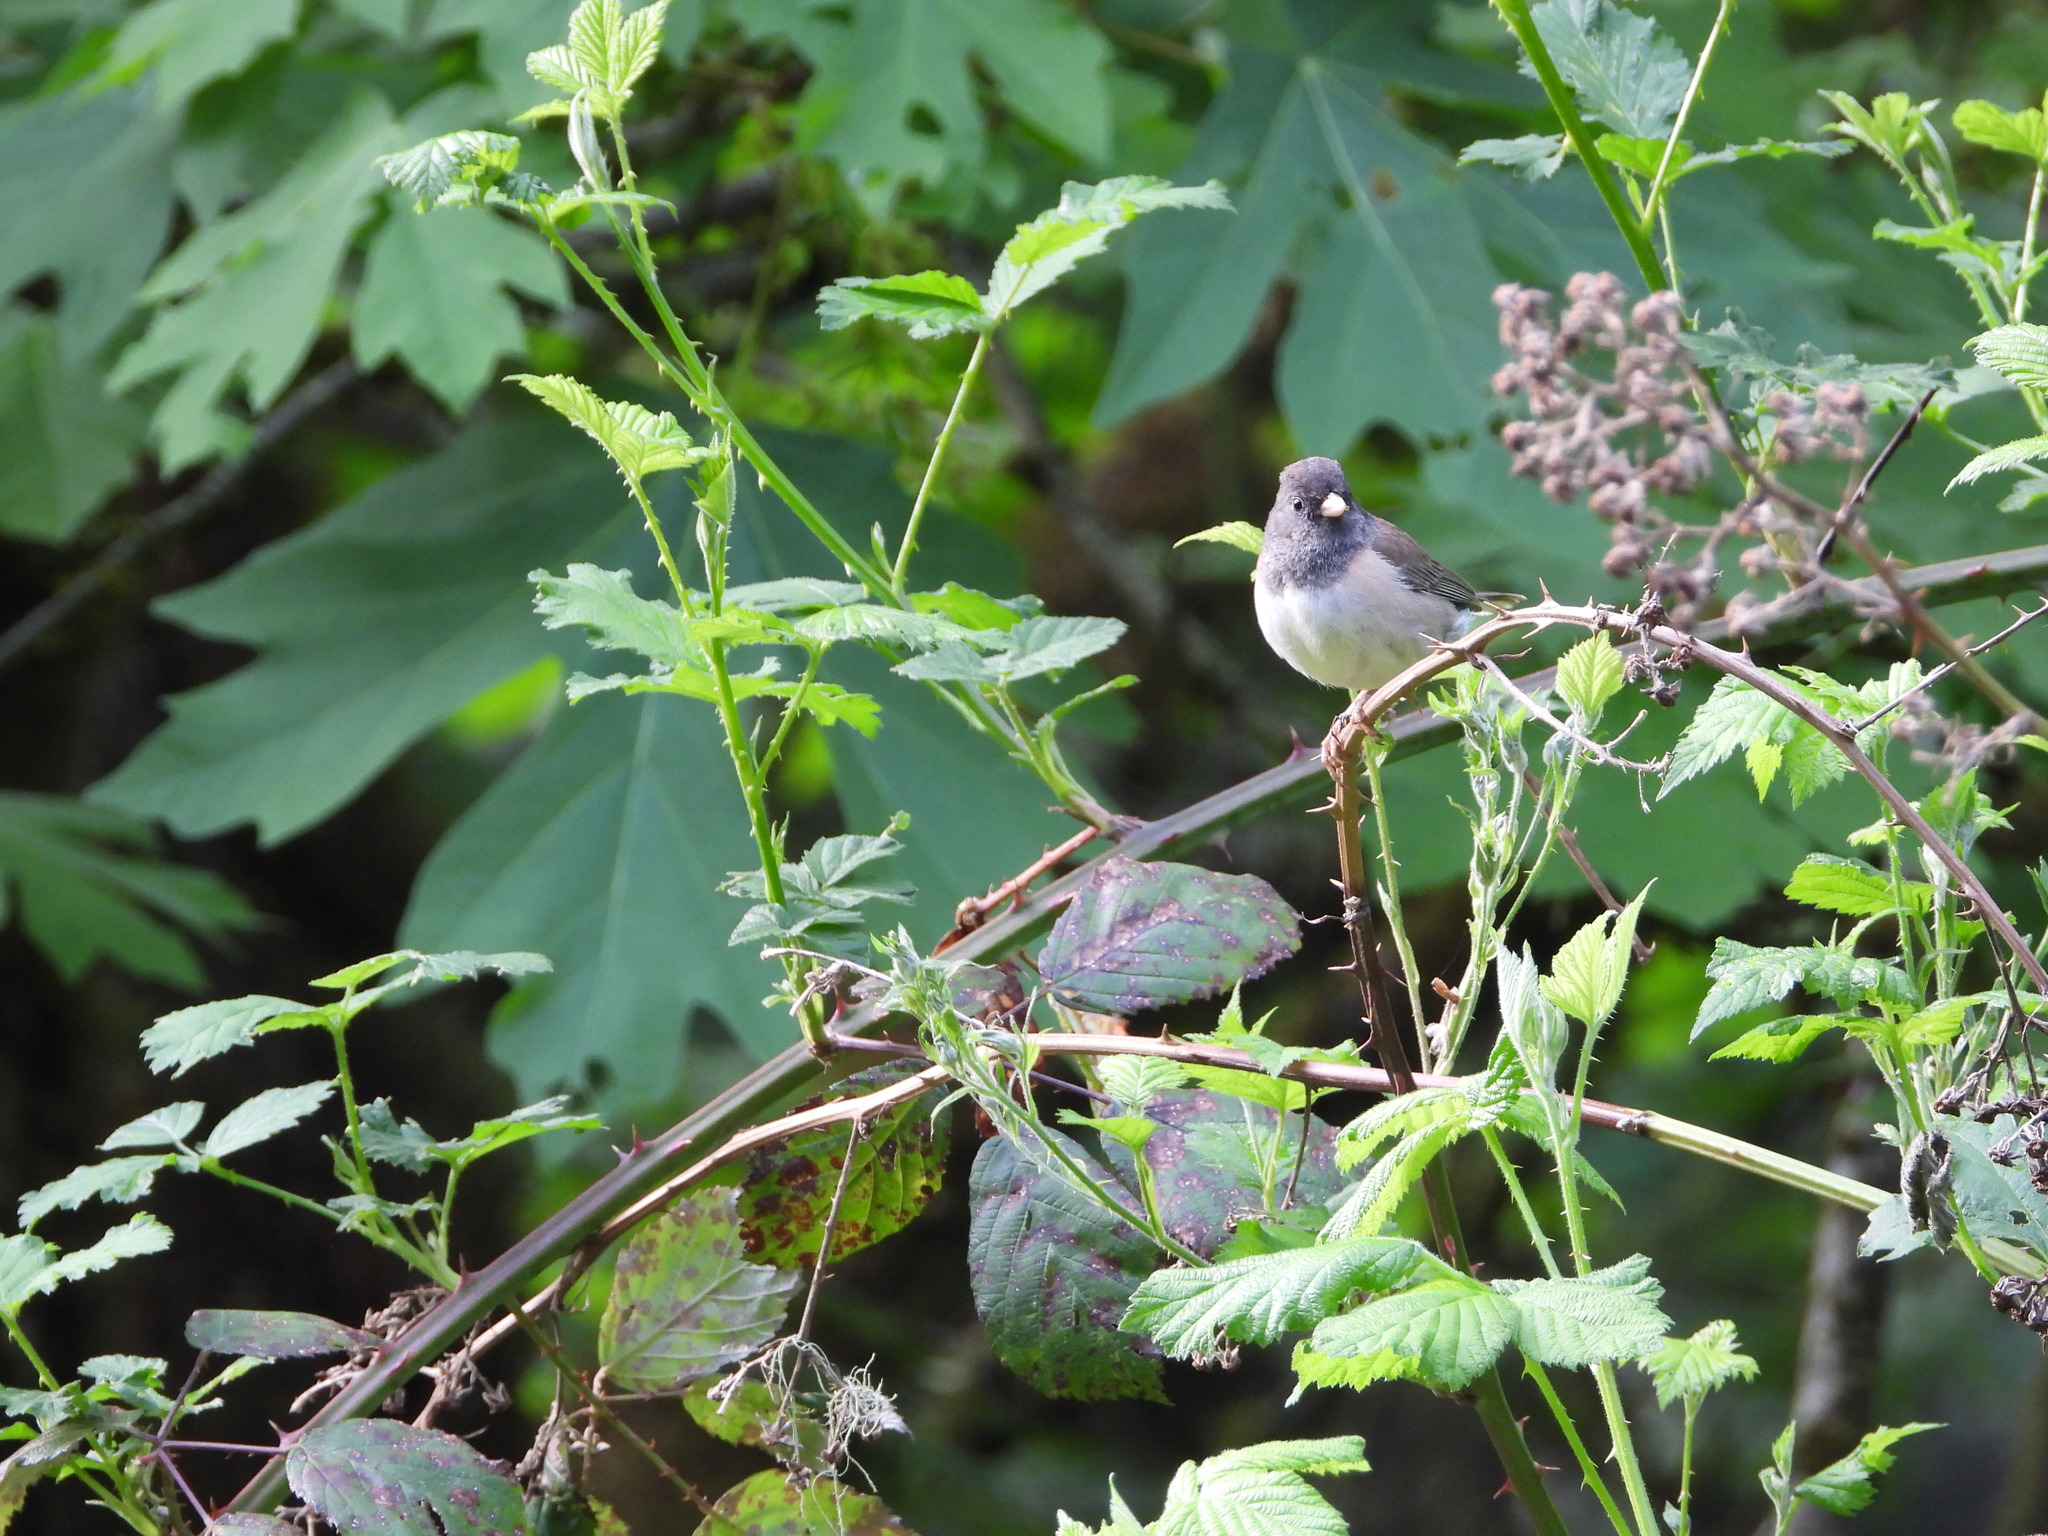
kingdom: Animalia
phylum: Chordata
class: Aves
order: Passeriformes
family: Passerellidae
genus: Junco
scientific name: Junco hyemalis
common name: Dark-eyed junco
